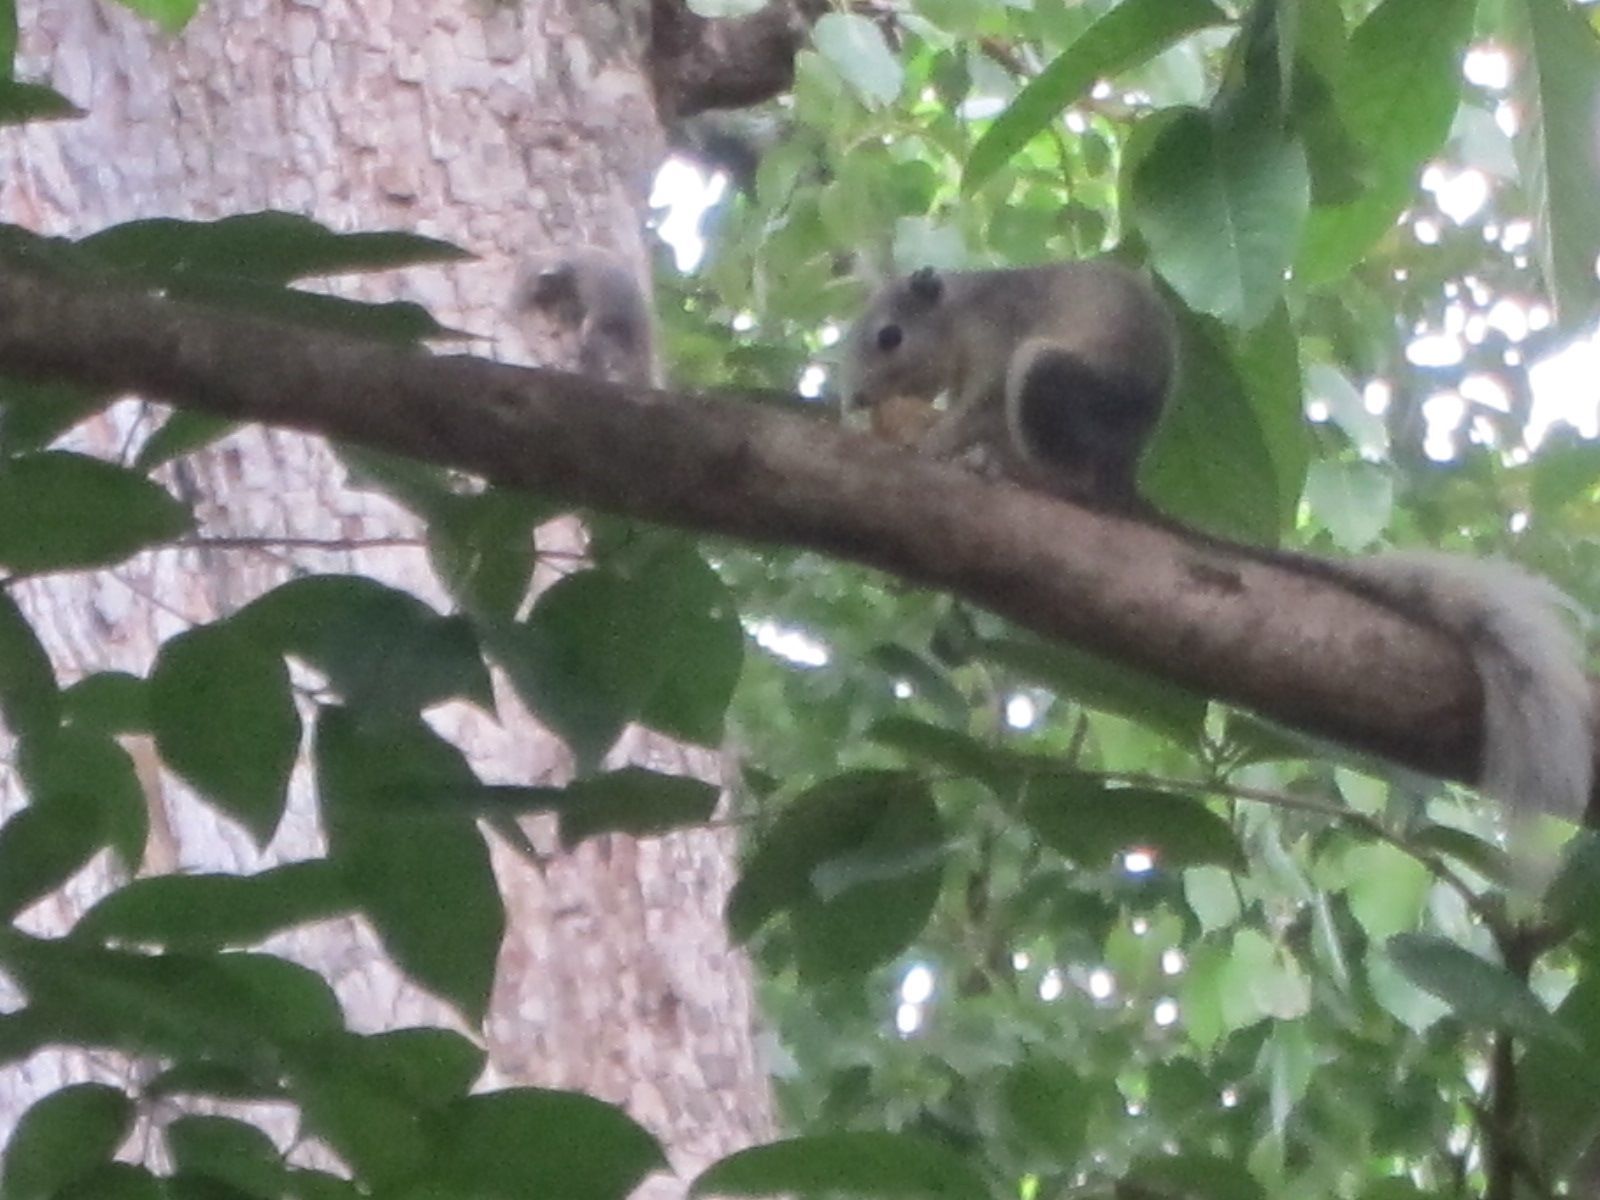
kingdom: Animalia
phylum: Chordata
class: Mammalia
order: Rodentia
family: Sciuridae
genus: Callosciurus
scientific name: Callosciurus finlaysonii
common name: Finlayson's squirrel
